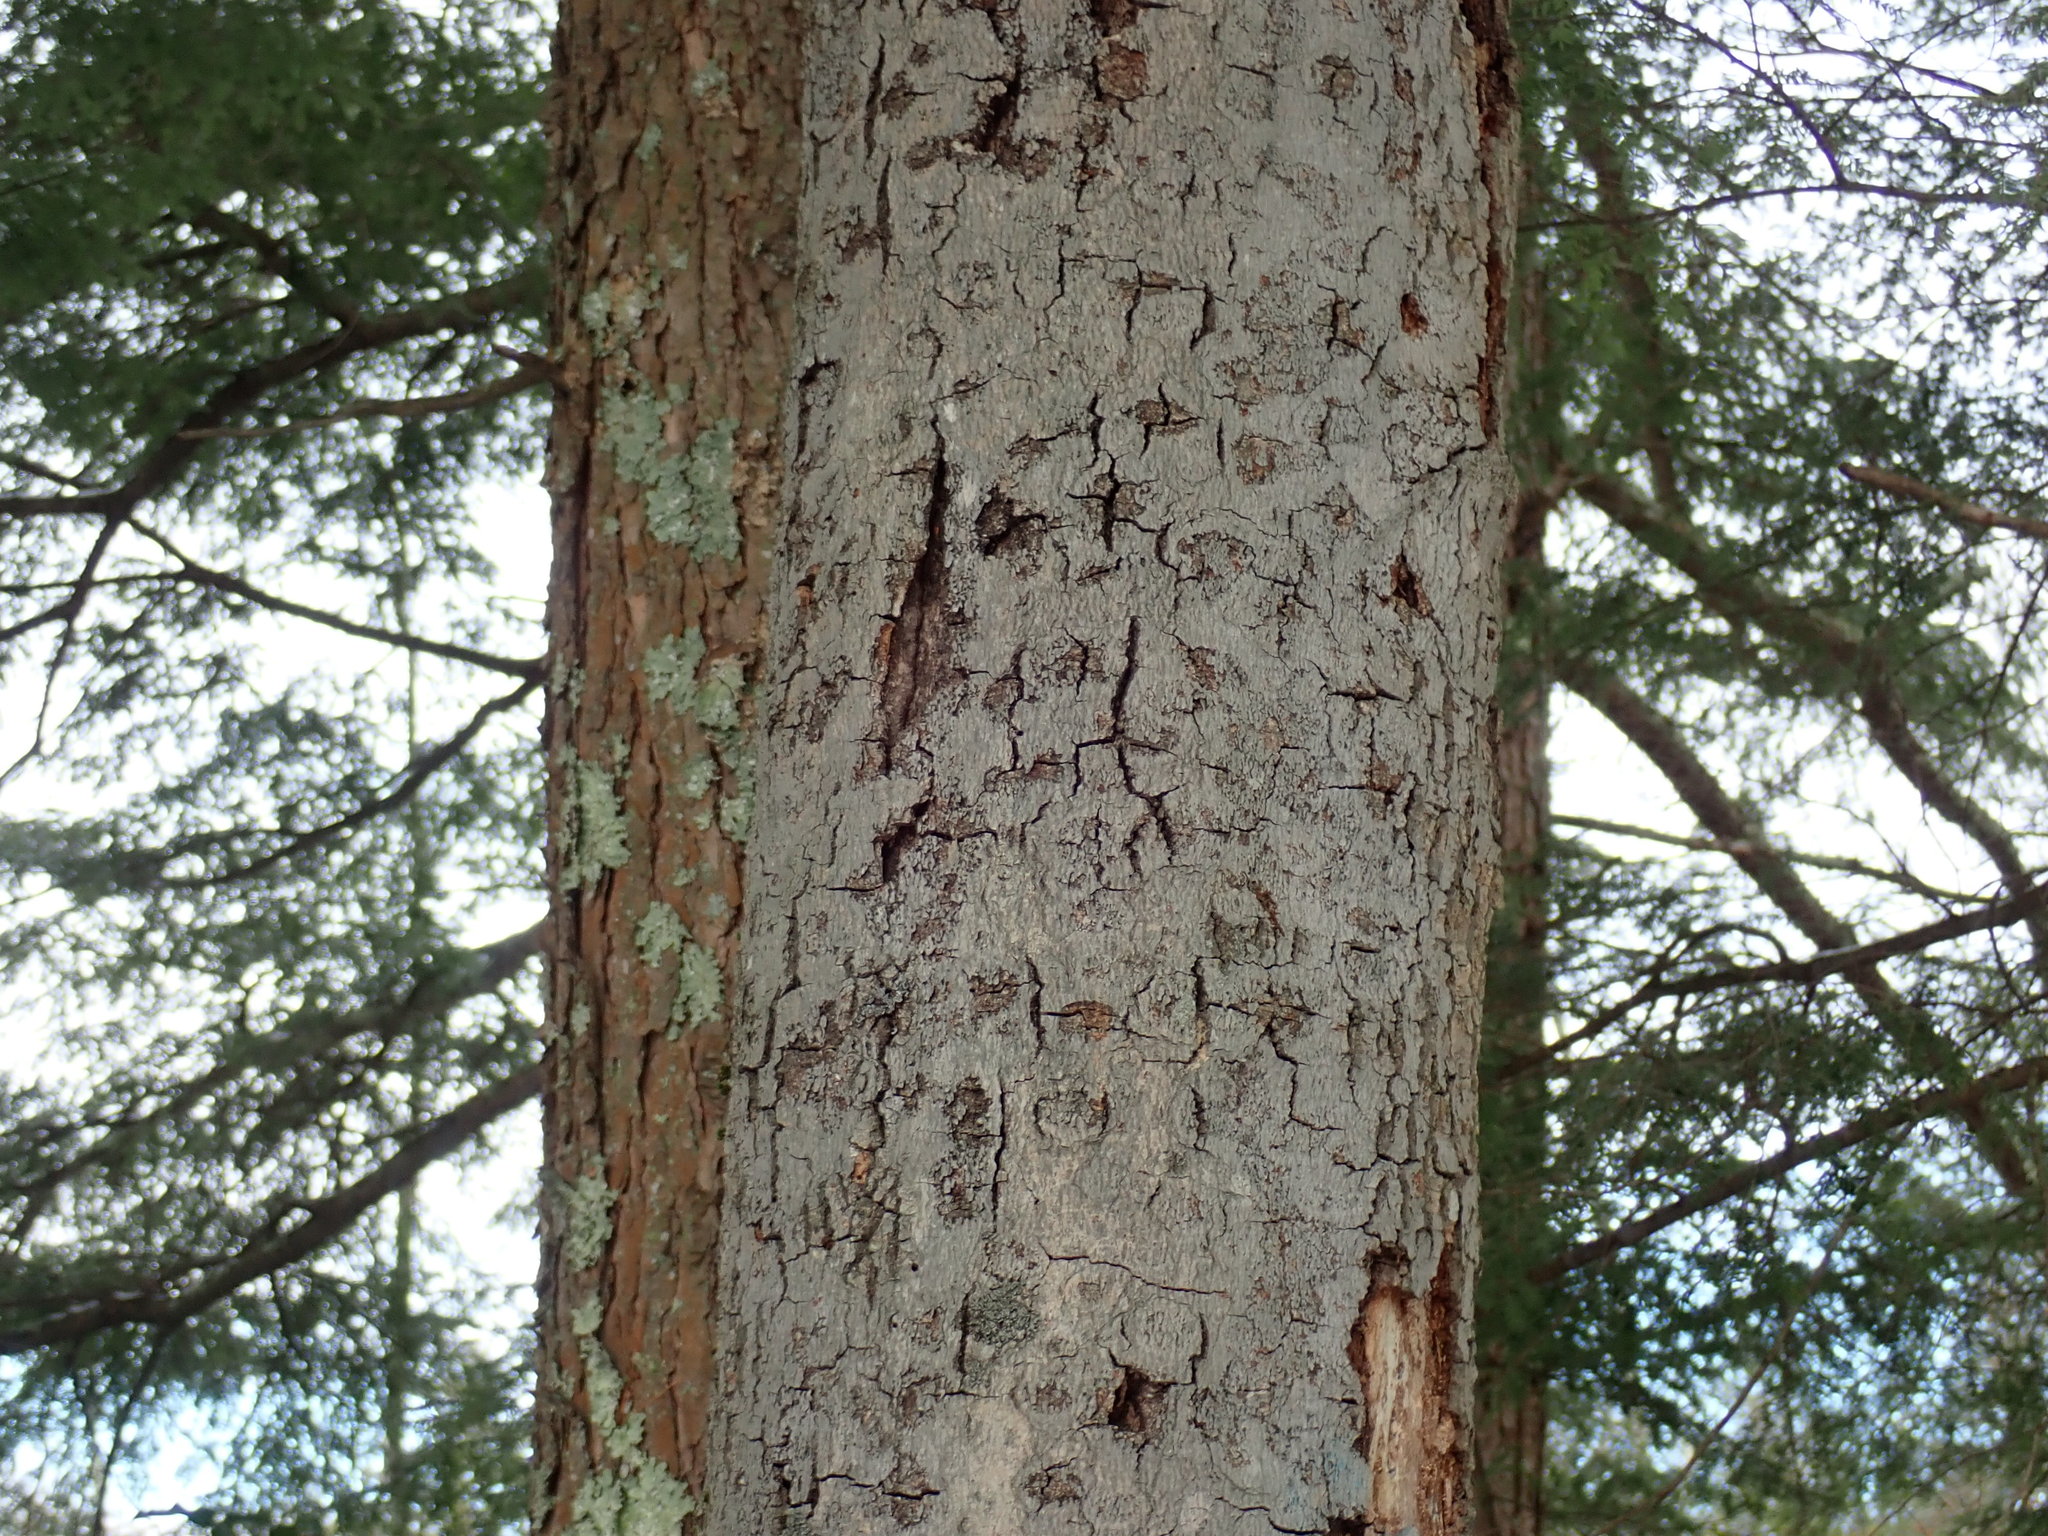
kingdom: Fungi
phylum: Ascomycota
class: Sordariomycetes
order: Hypocreales
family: Nectriaceae
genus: Neonectria
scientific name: Neonectria faginata
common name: Beech bark canker
